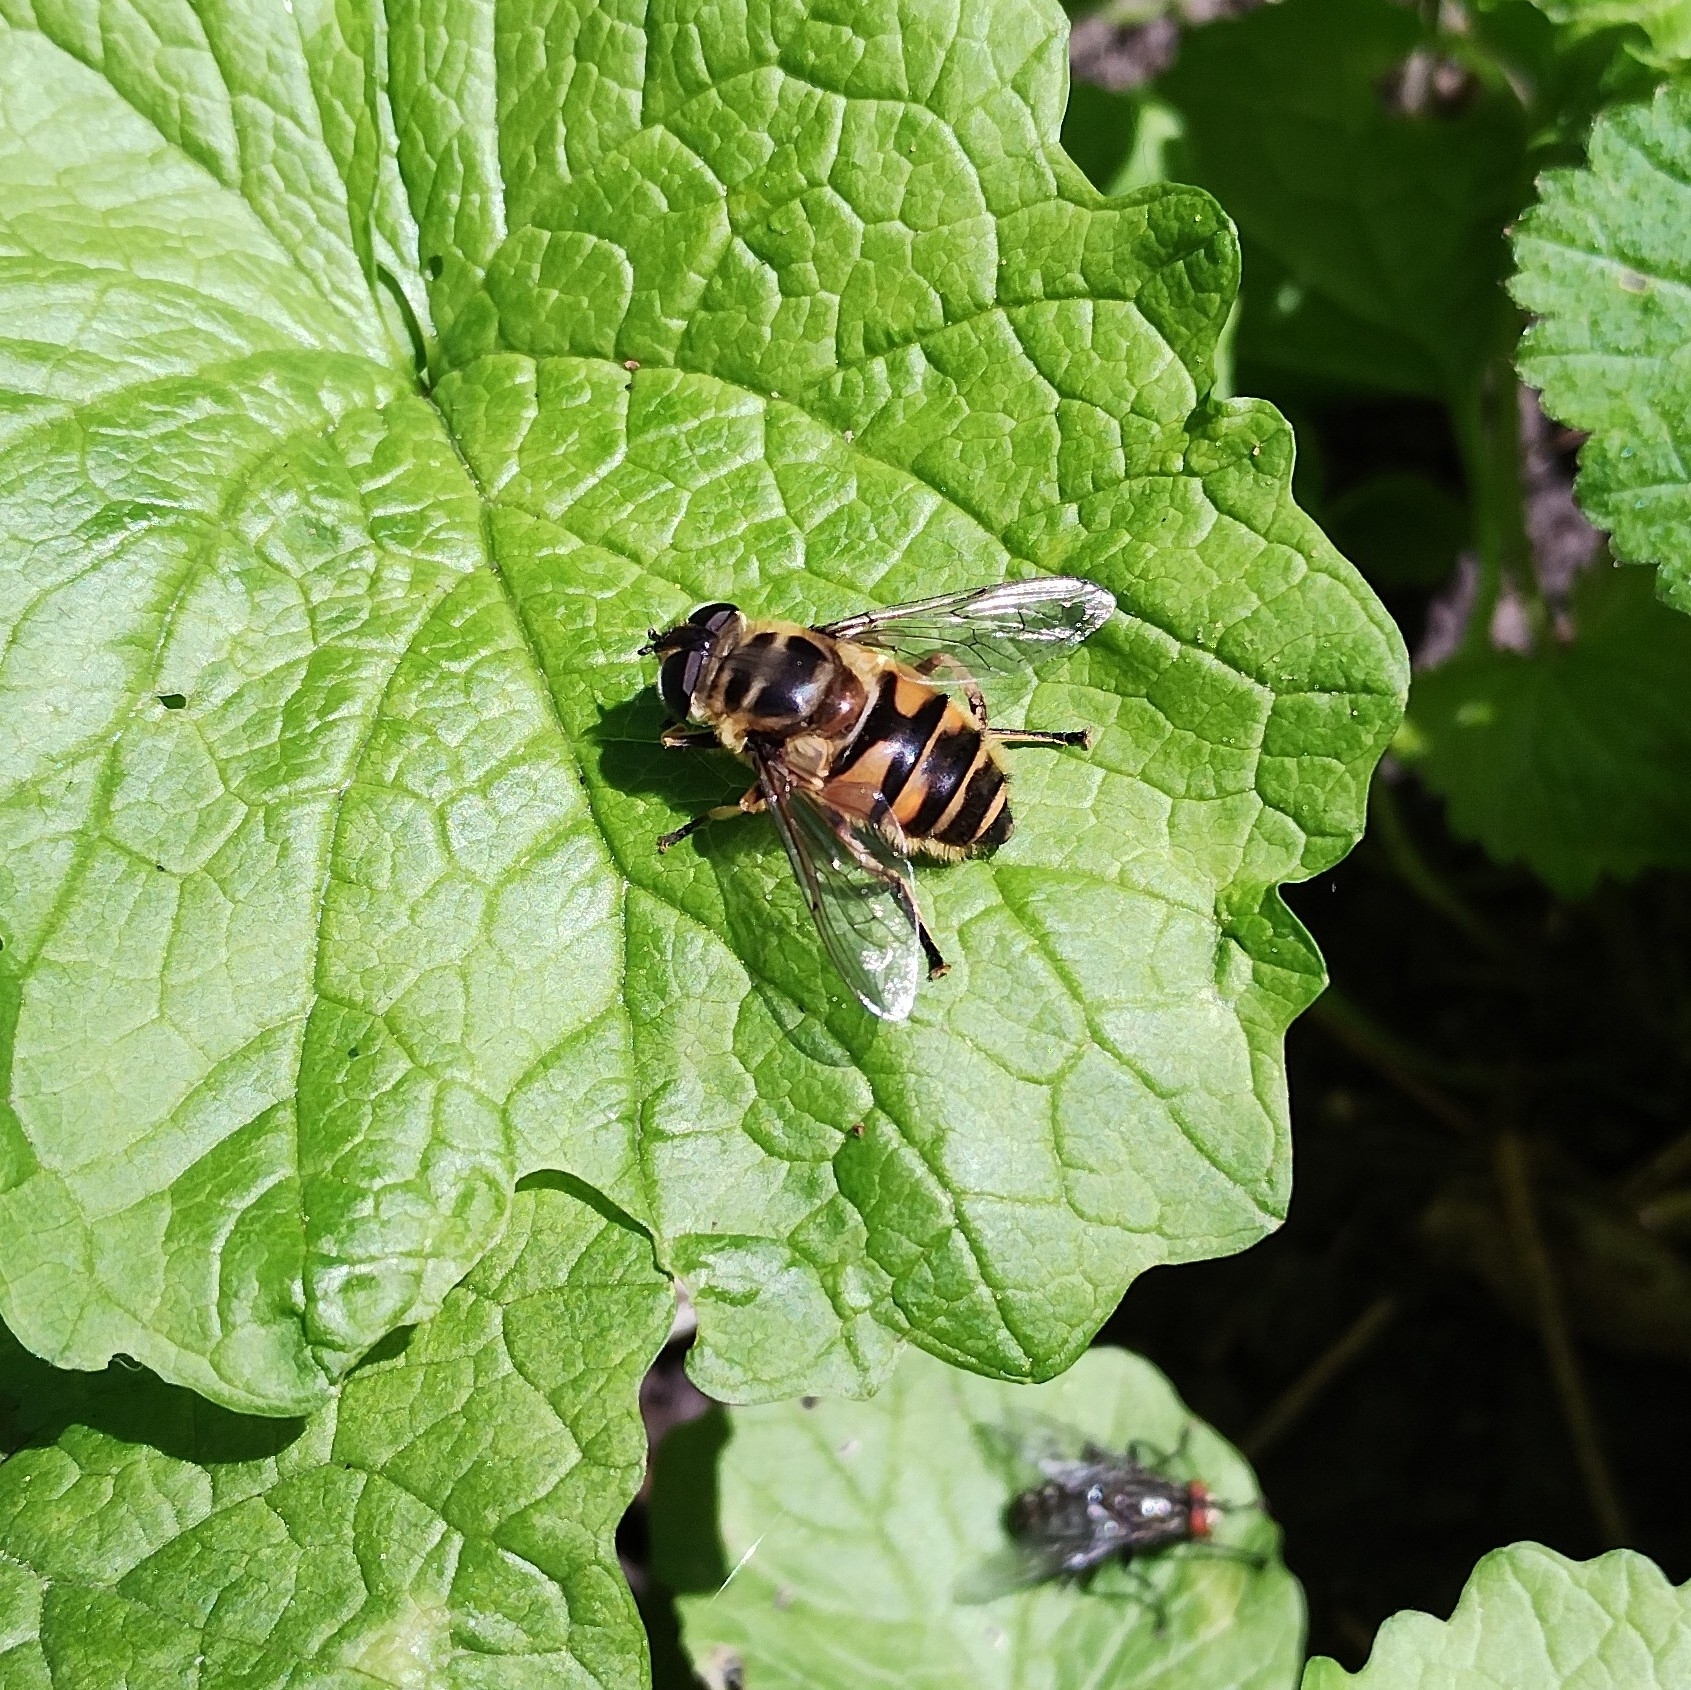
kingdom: Animalia
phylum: Arthropoda
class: Insecta
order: Diptera
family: Syrphidae
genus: Myathropa
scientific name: Myathropa florea
